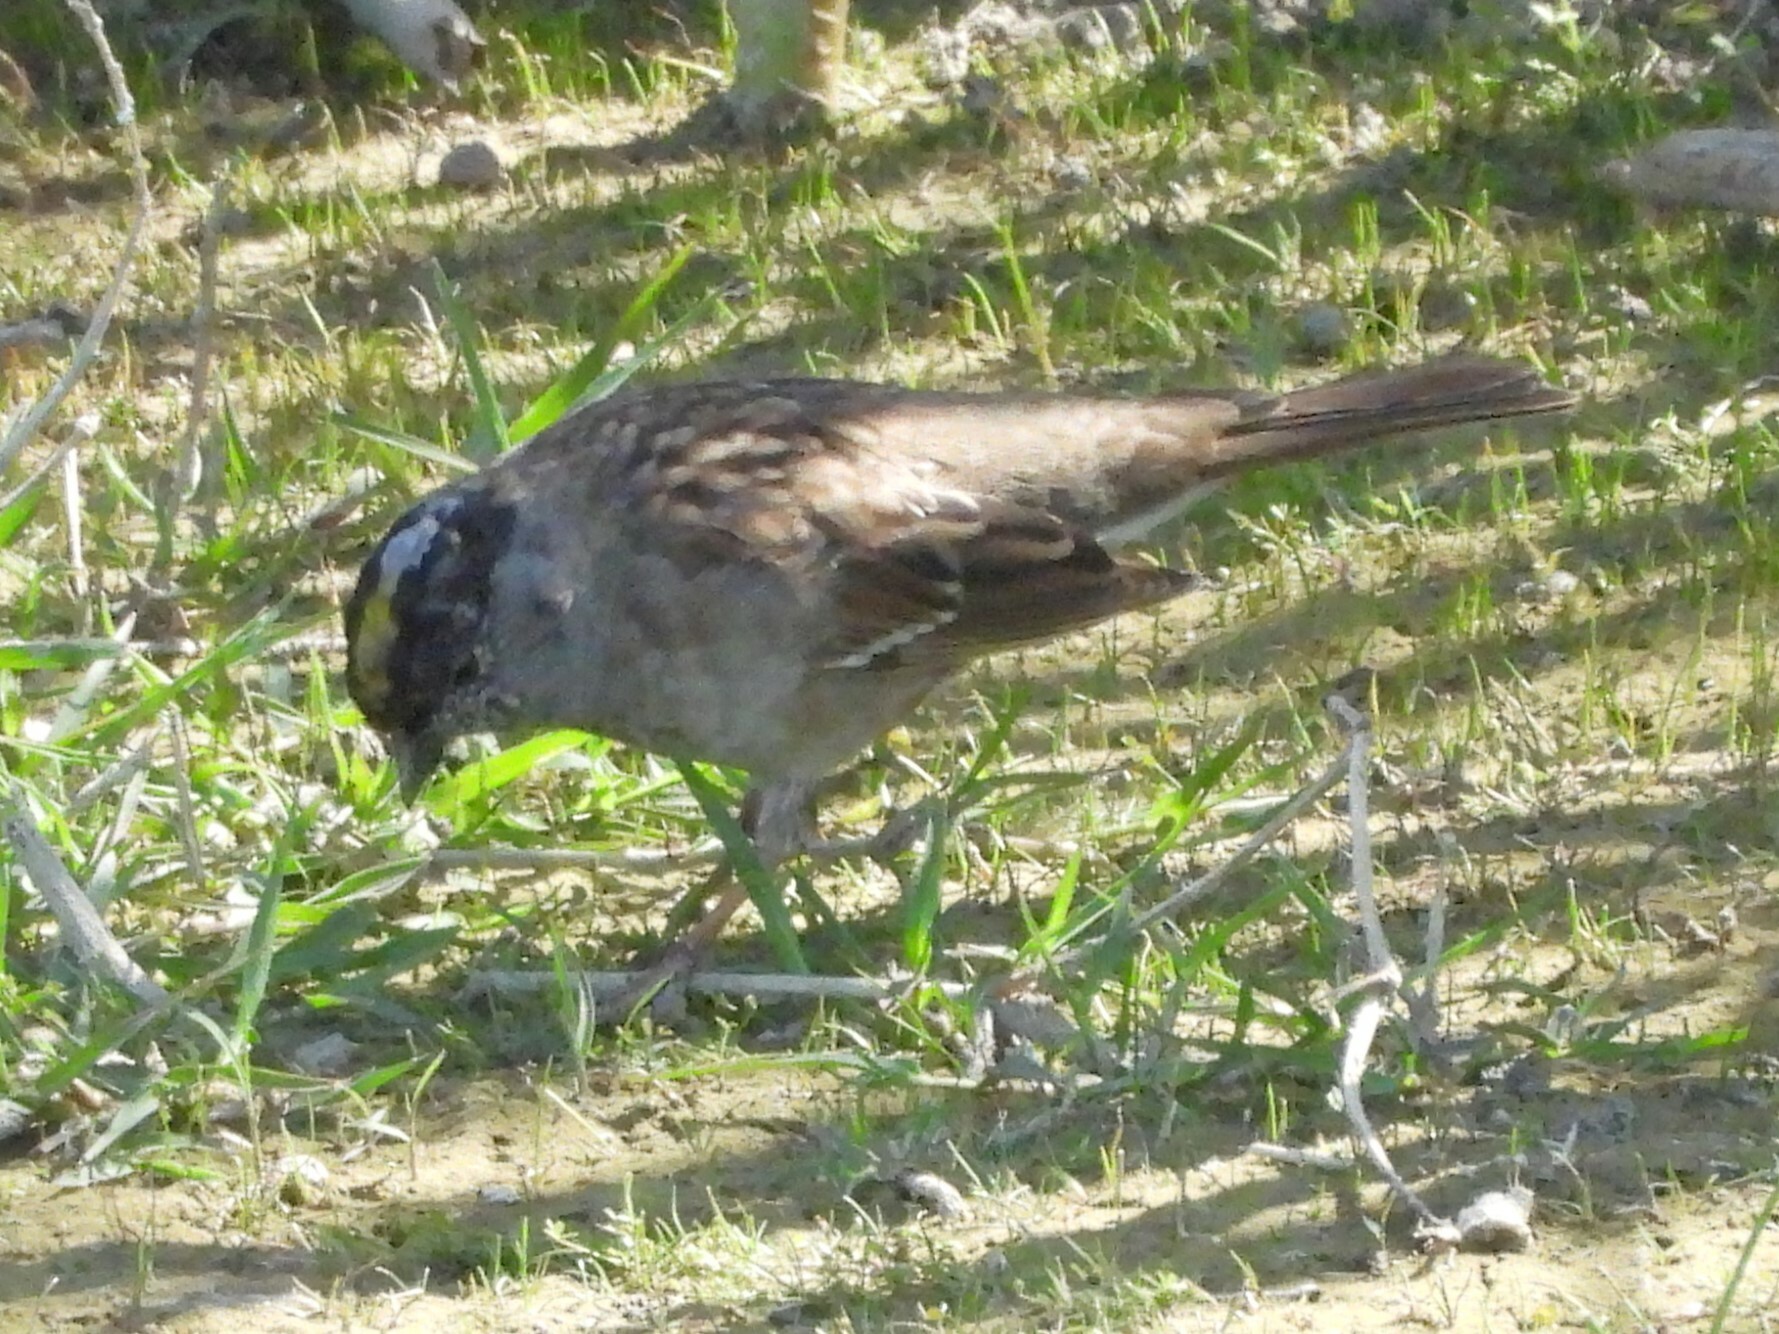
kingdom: Animalia
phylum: Chordata
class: Aves
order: Passeriformes
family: Passerellidae
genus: Zonotrichia
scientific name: Zonotrichia atricapilla
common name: Golden-crowned sparrow
